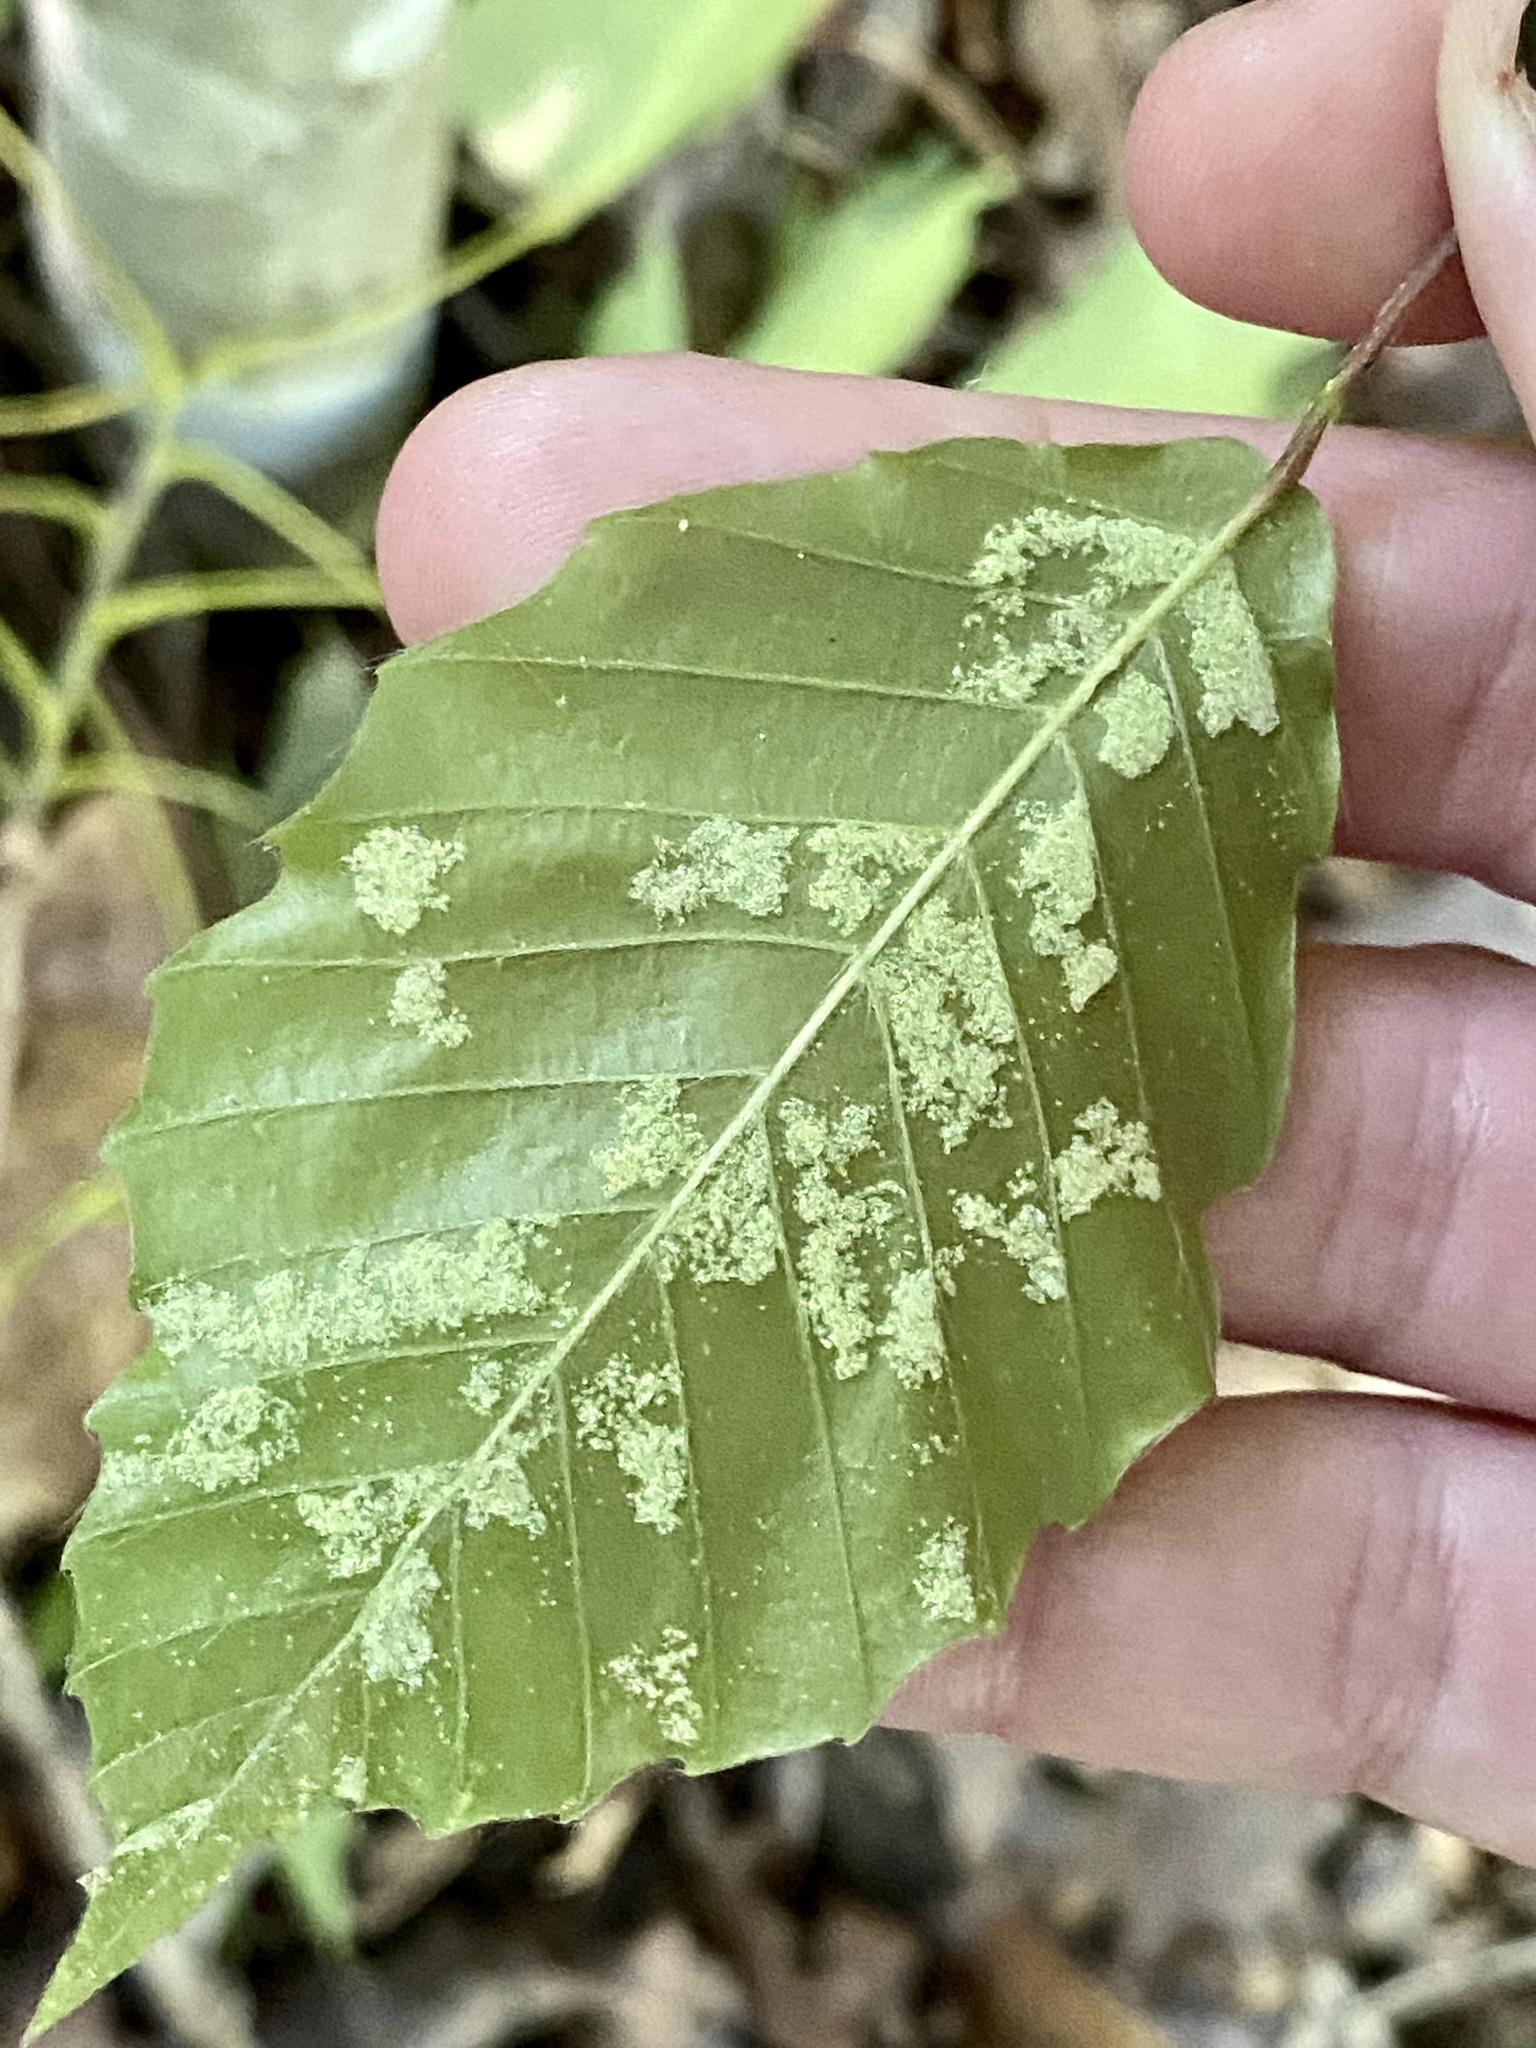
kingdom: Animalia
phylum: Arthropoda
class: Arachnida
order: Trombidiformes
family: Eriophyidae
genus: Acalitus
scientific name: Acalitus
